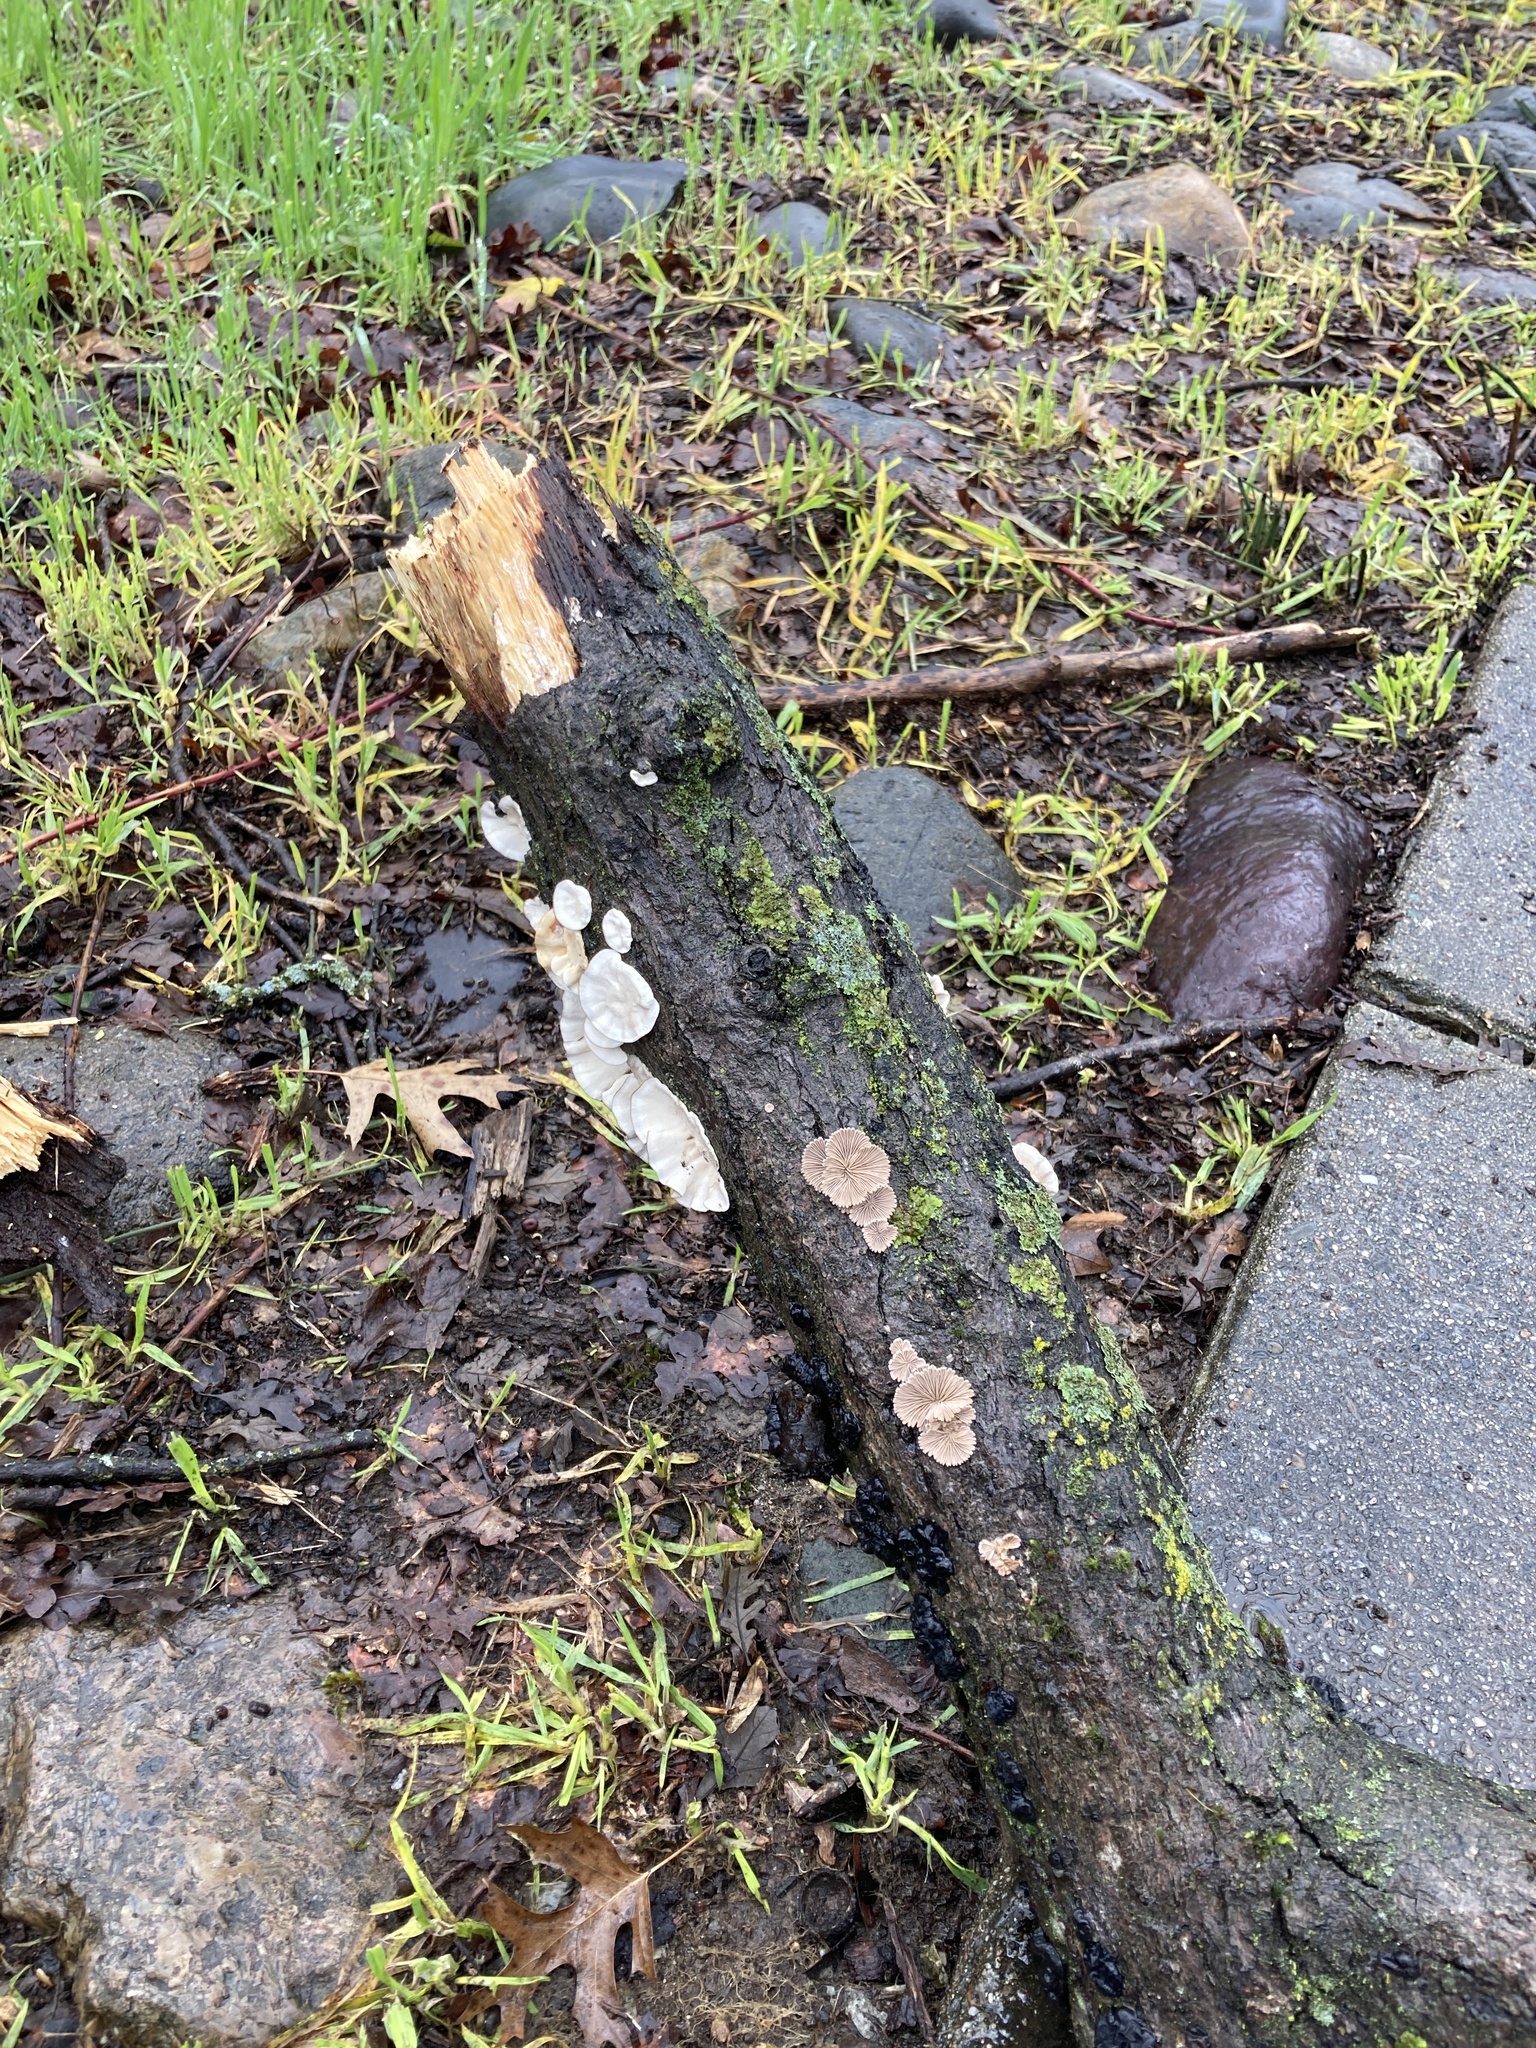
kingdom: Fungi
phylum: Basidiomycota
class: Agaricomycetes
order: Agaricales
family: Schizophyllaceae
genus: Schizophyllum
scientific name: Schizophyllum commune
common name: Common porecrust
